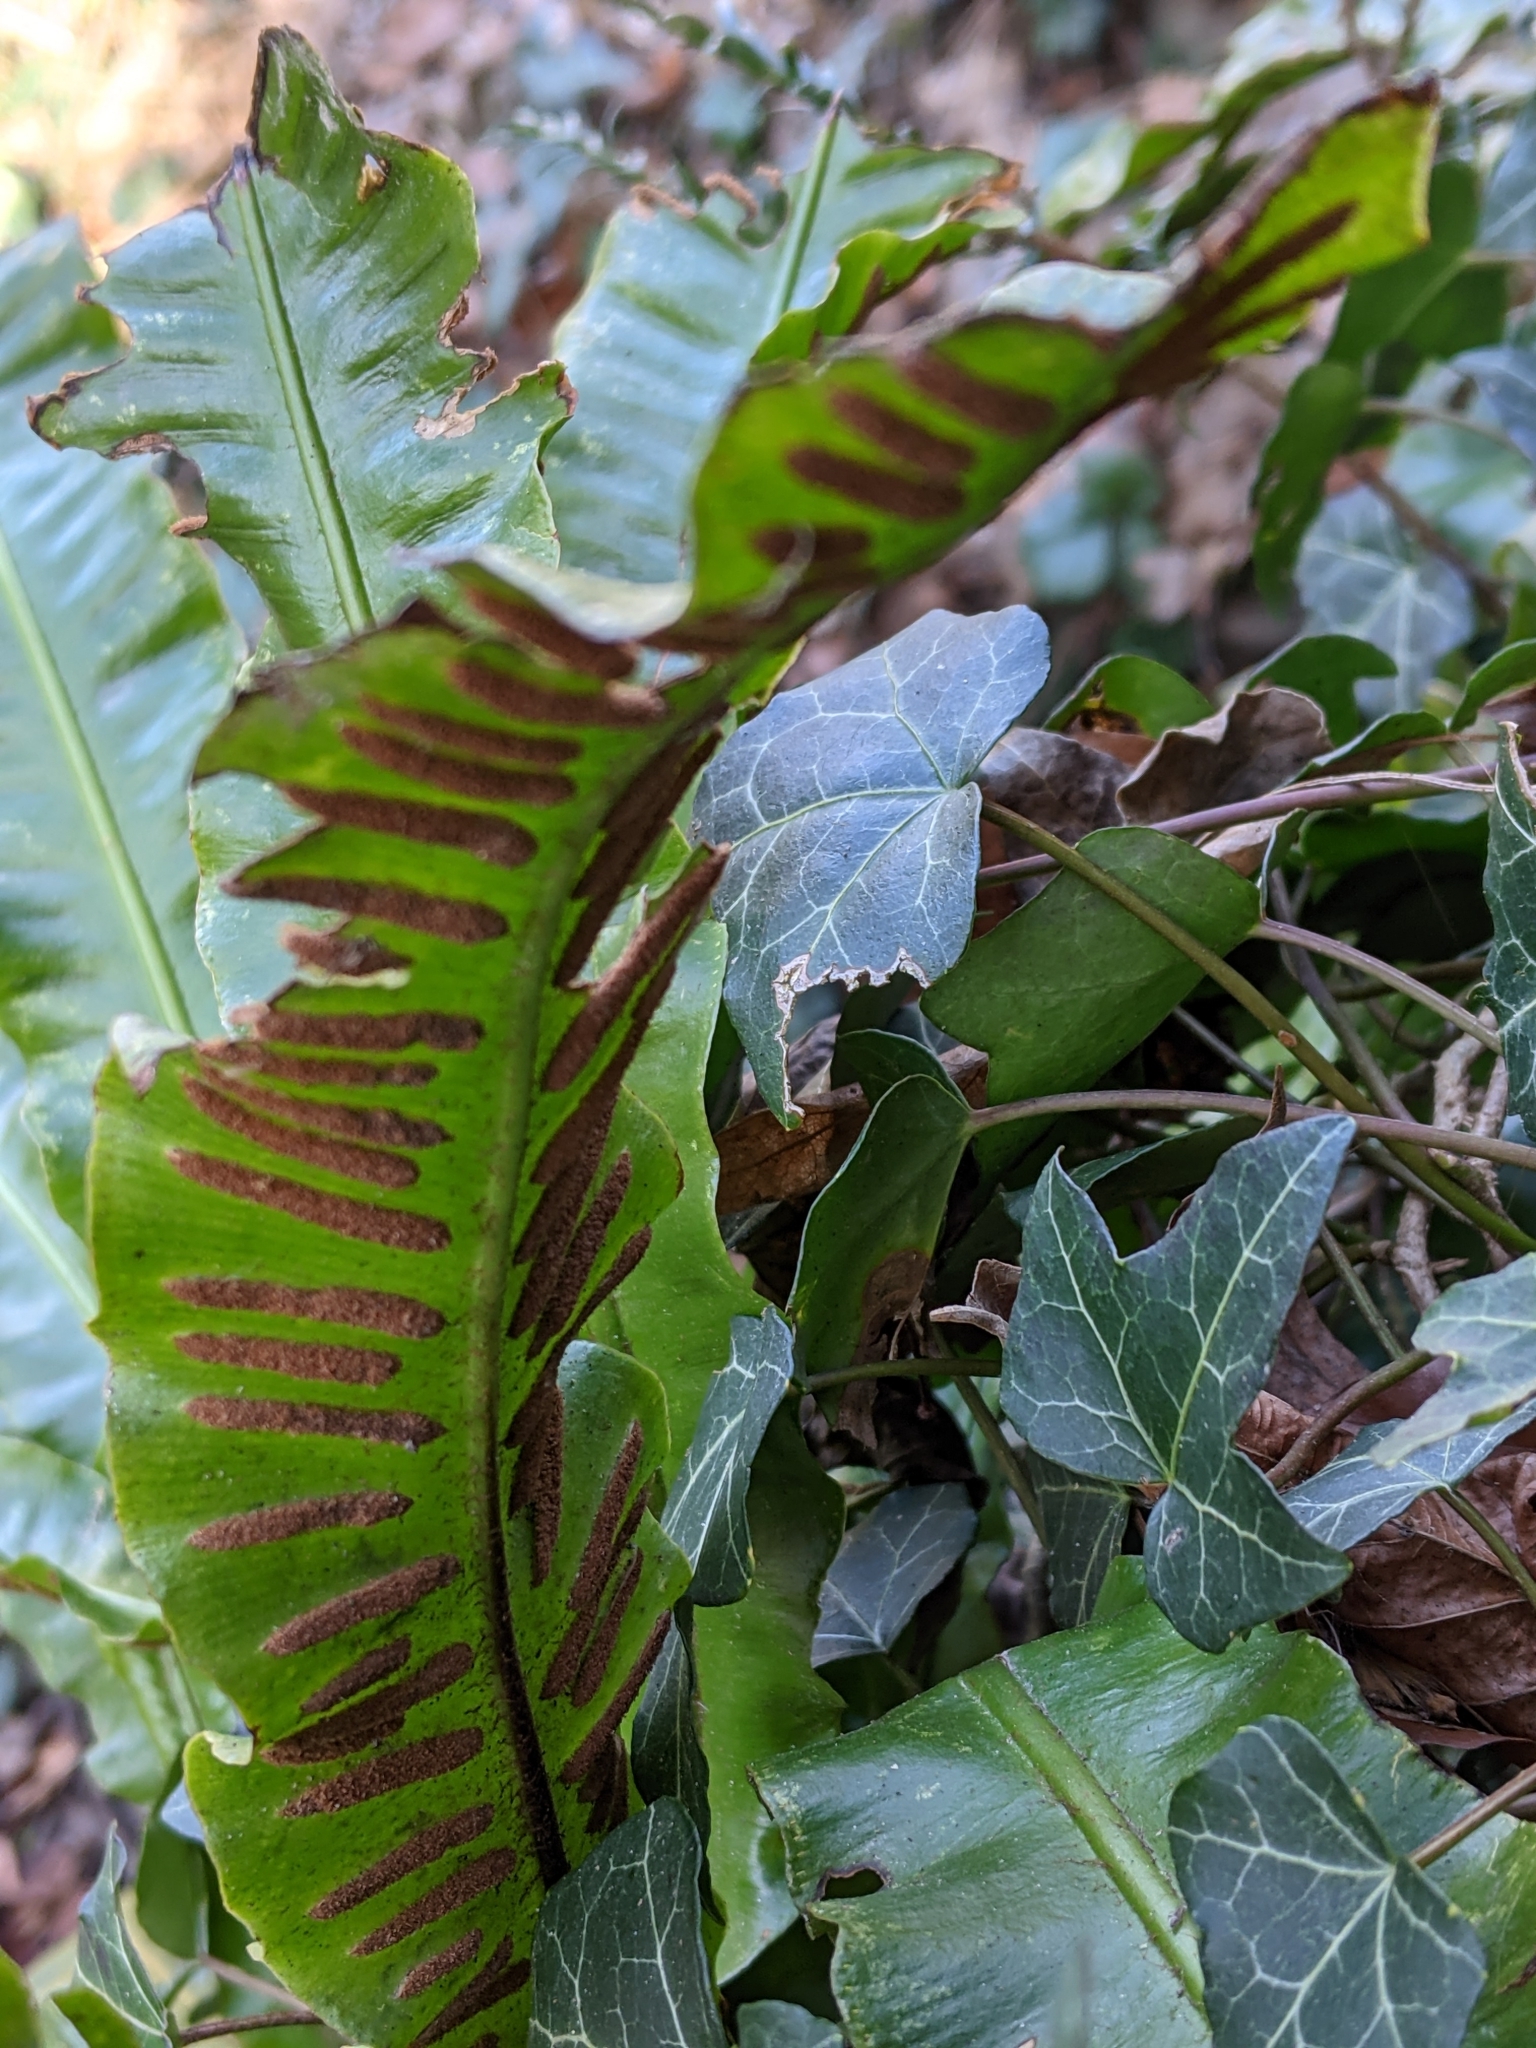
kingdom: Plantae
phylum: Tracheophyta
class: Polypodiopsida
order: Polypodiales
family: Aspleniaceae
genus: Asplenium
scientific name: Asplenium scolopendrium
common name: Hart's-tongue fern
